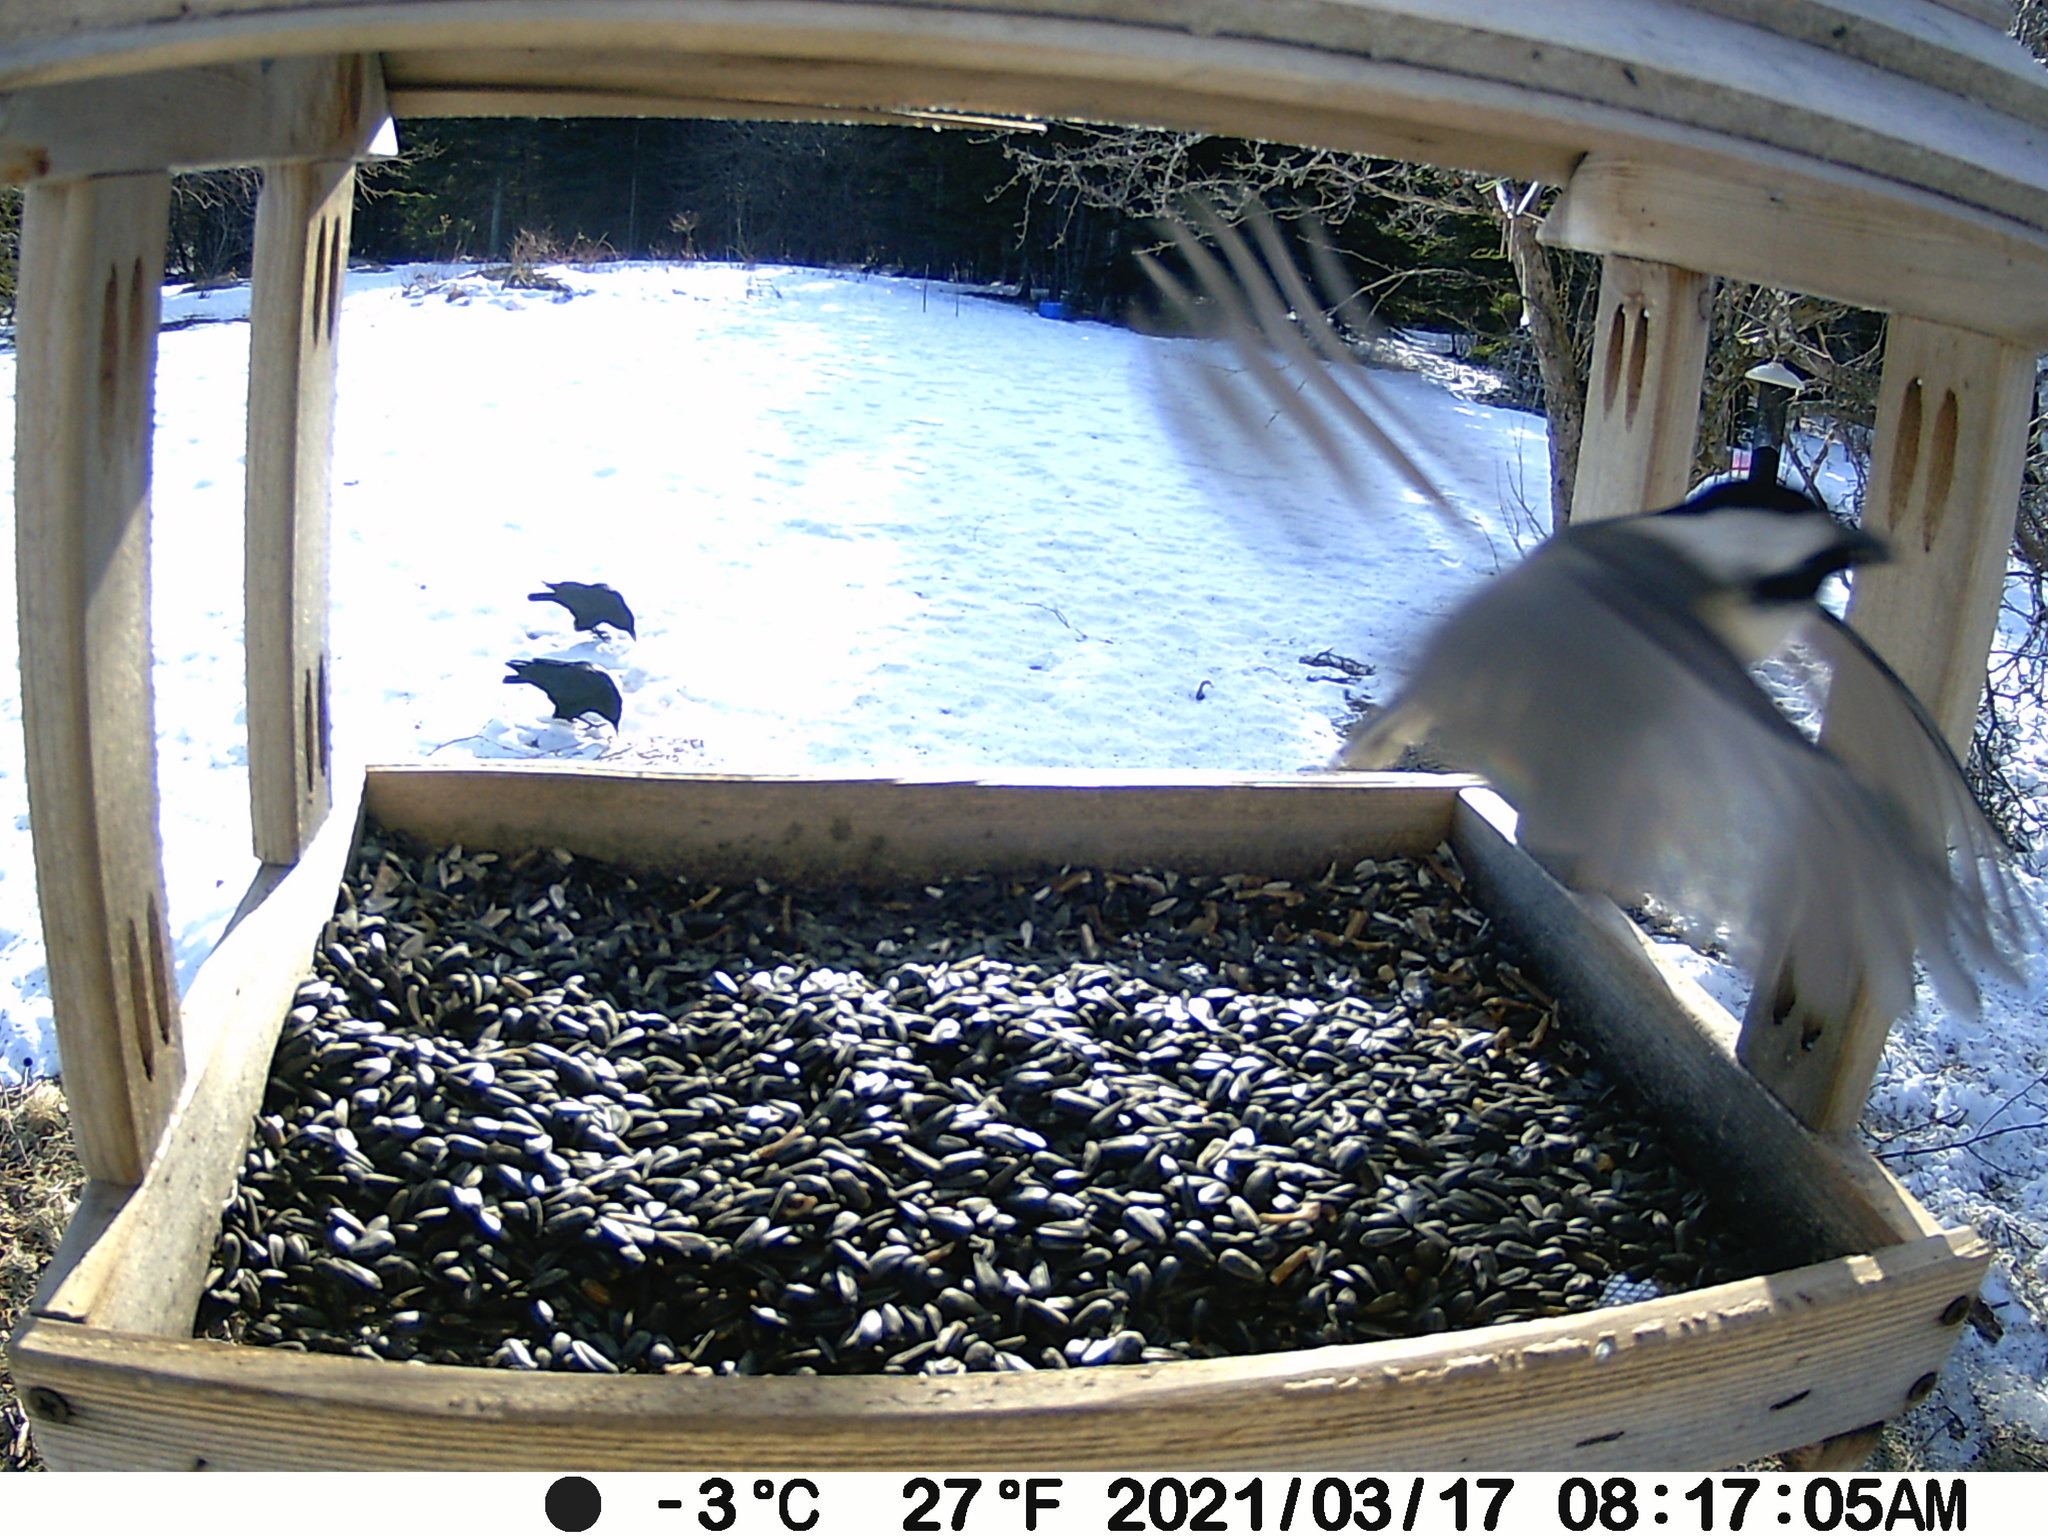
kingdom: Animalia
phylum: Chordata
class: Aves
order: Passeriformes
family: Corvidae
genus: Corvus
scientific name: Corvus brachyrhynchos
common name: American crow
